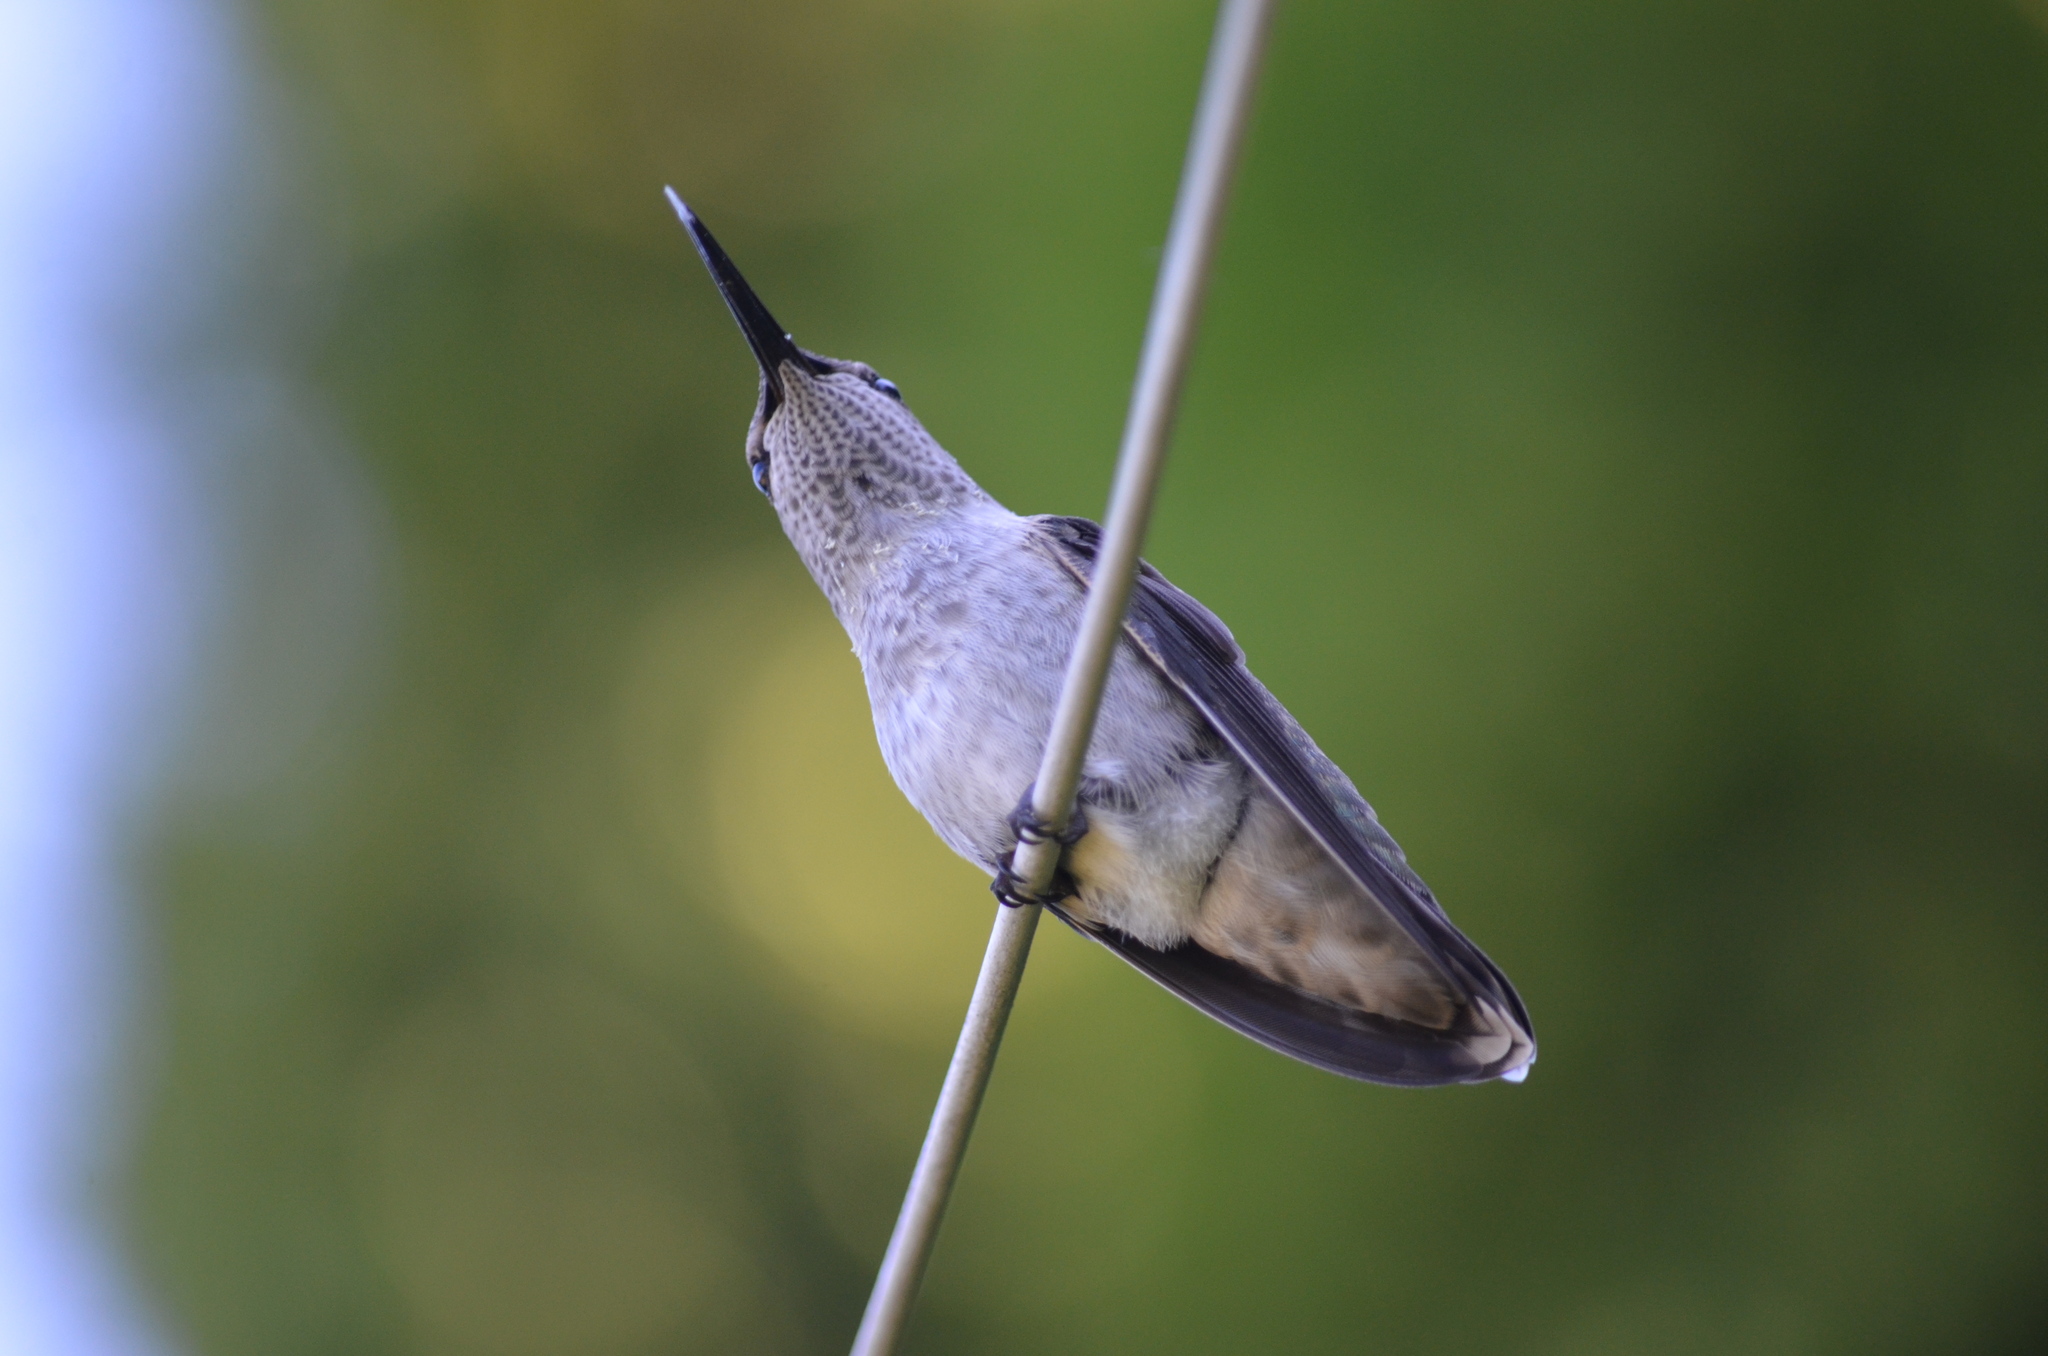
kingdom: Animalia
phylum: Chordata
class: Aves
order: Apodiformes
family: Trochilidae
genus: Calypte
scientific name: Calypte anna
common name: Anna's hummingbird
